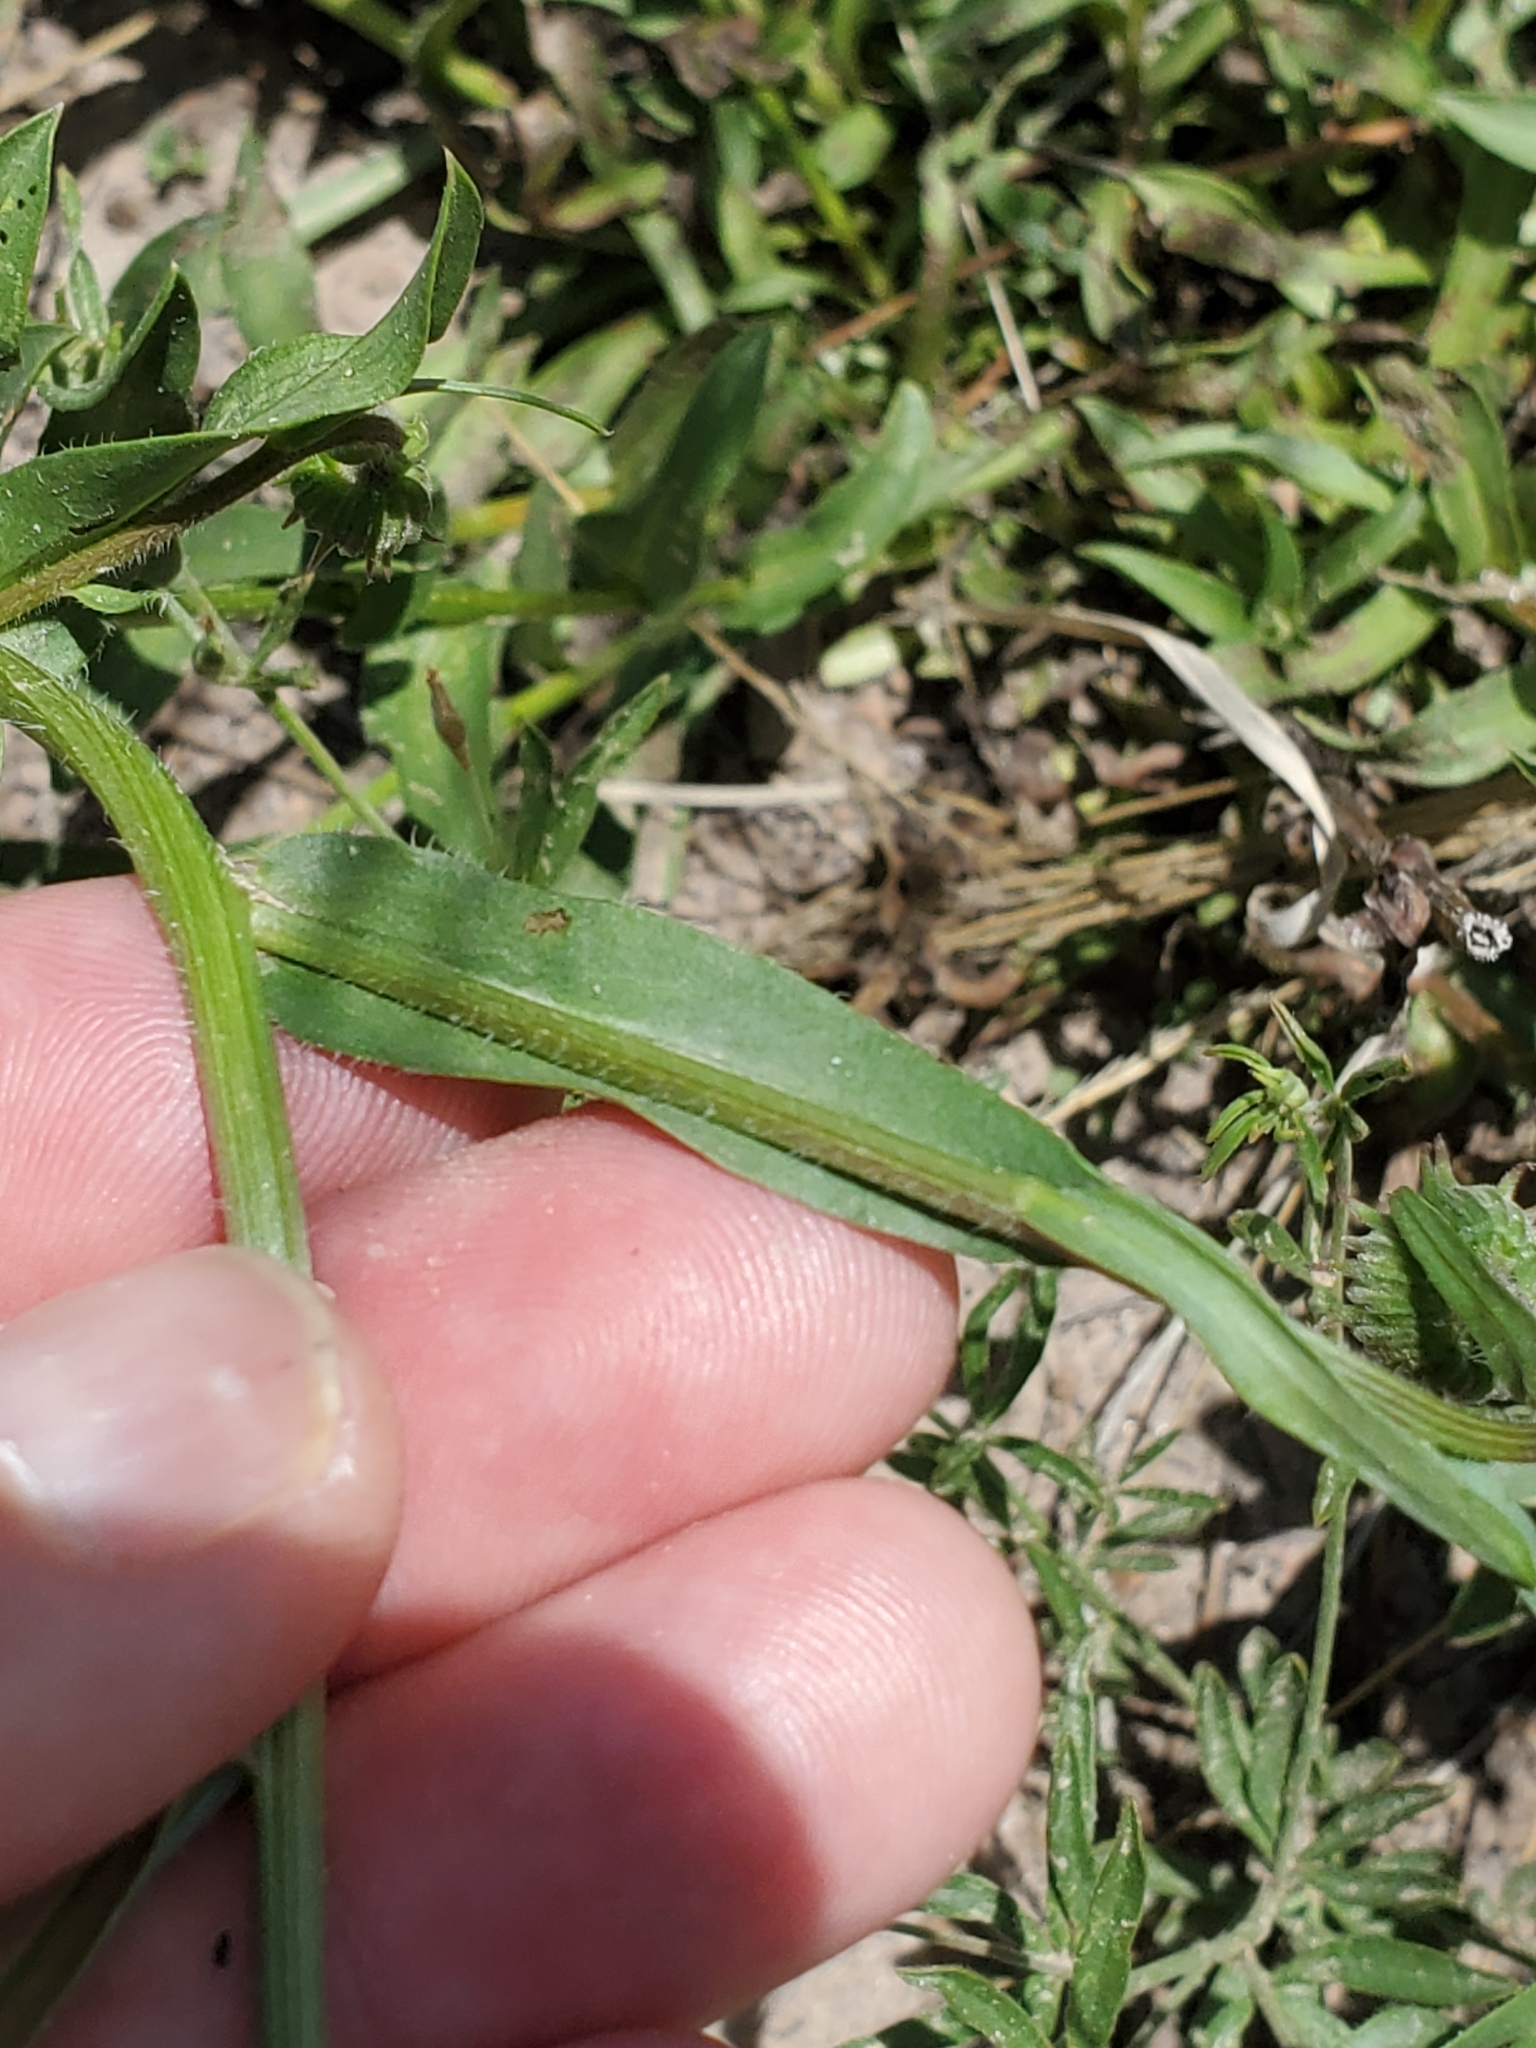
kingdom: Plantae
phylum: Tracheophyta
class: Magnoliopsida
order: Asterales
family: Asteraceae
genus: Erigeron
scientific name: Erigeron speciosus
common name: Aspen fleabane
